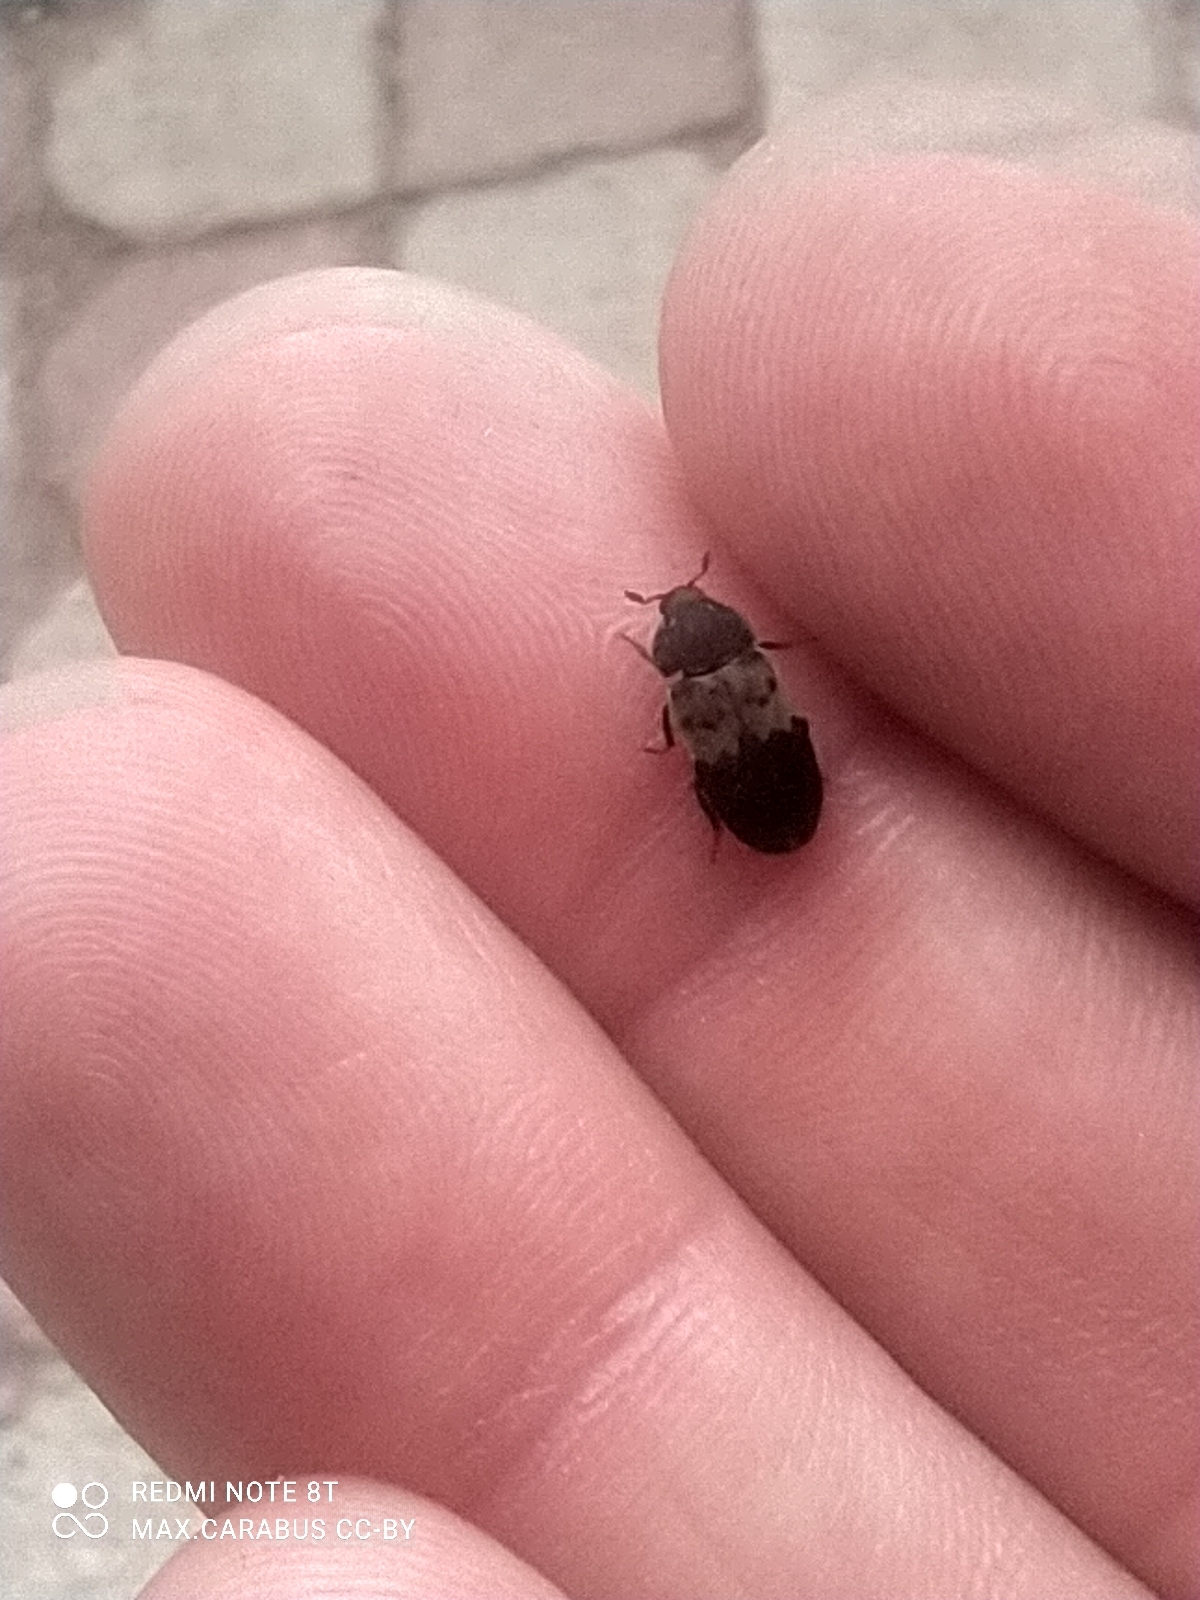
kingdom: Animalia
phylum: Arthropoda
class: Insecta
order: Coleoptera
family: Dermestidae
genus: Dermestes
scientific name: Dermestes lardarius
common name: Larder beetle
